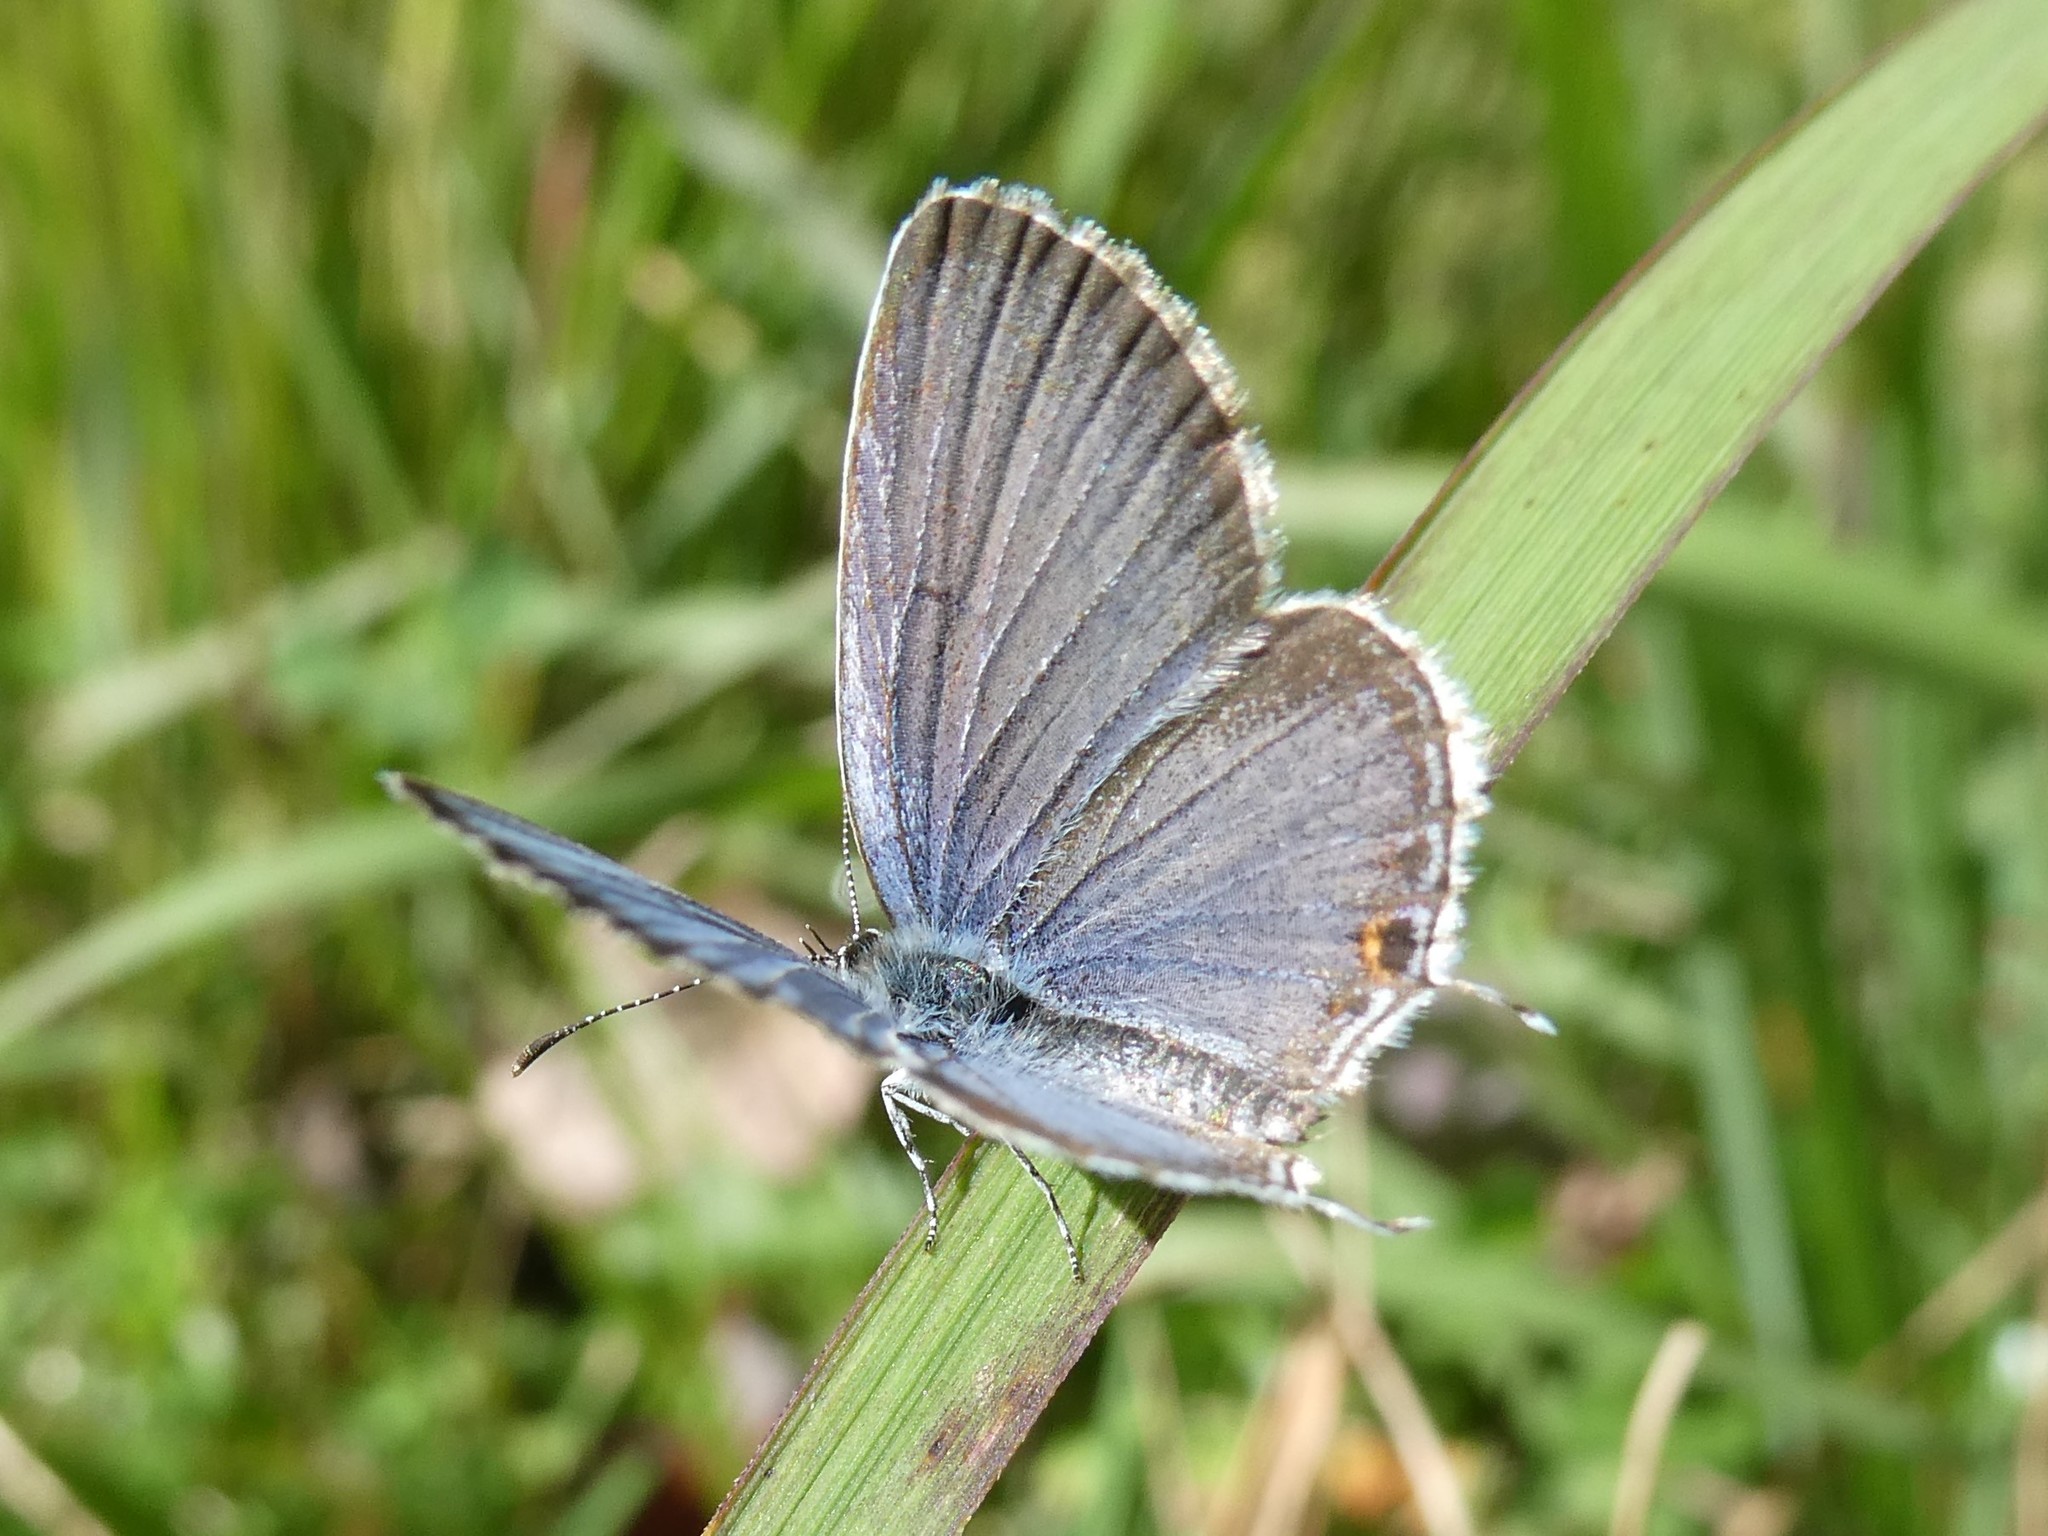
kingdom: Animalia
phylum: Arthropoda
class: Insecta
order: Lepidoptera
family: Lycaenidae
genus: Elkalyce
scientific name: Elkalyce comyntas
